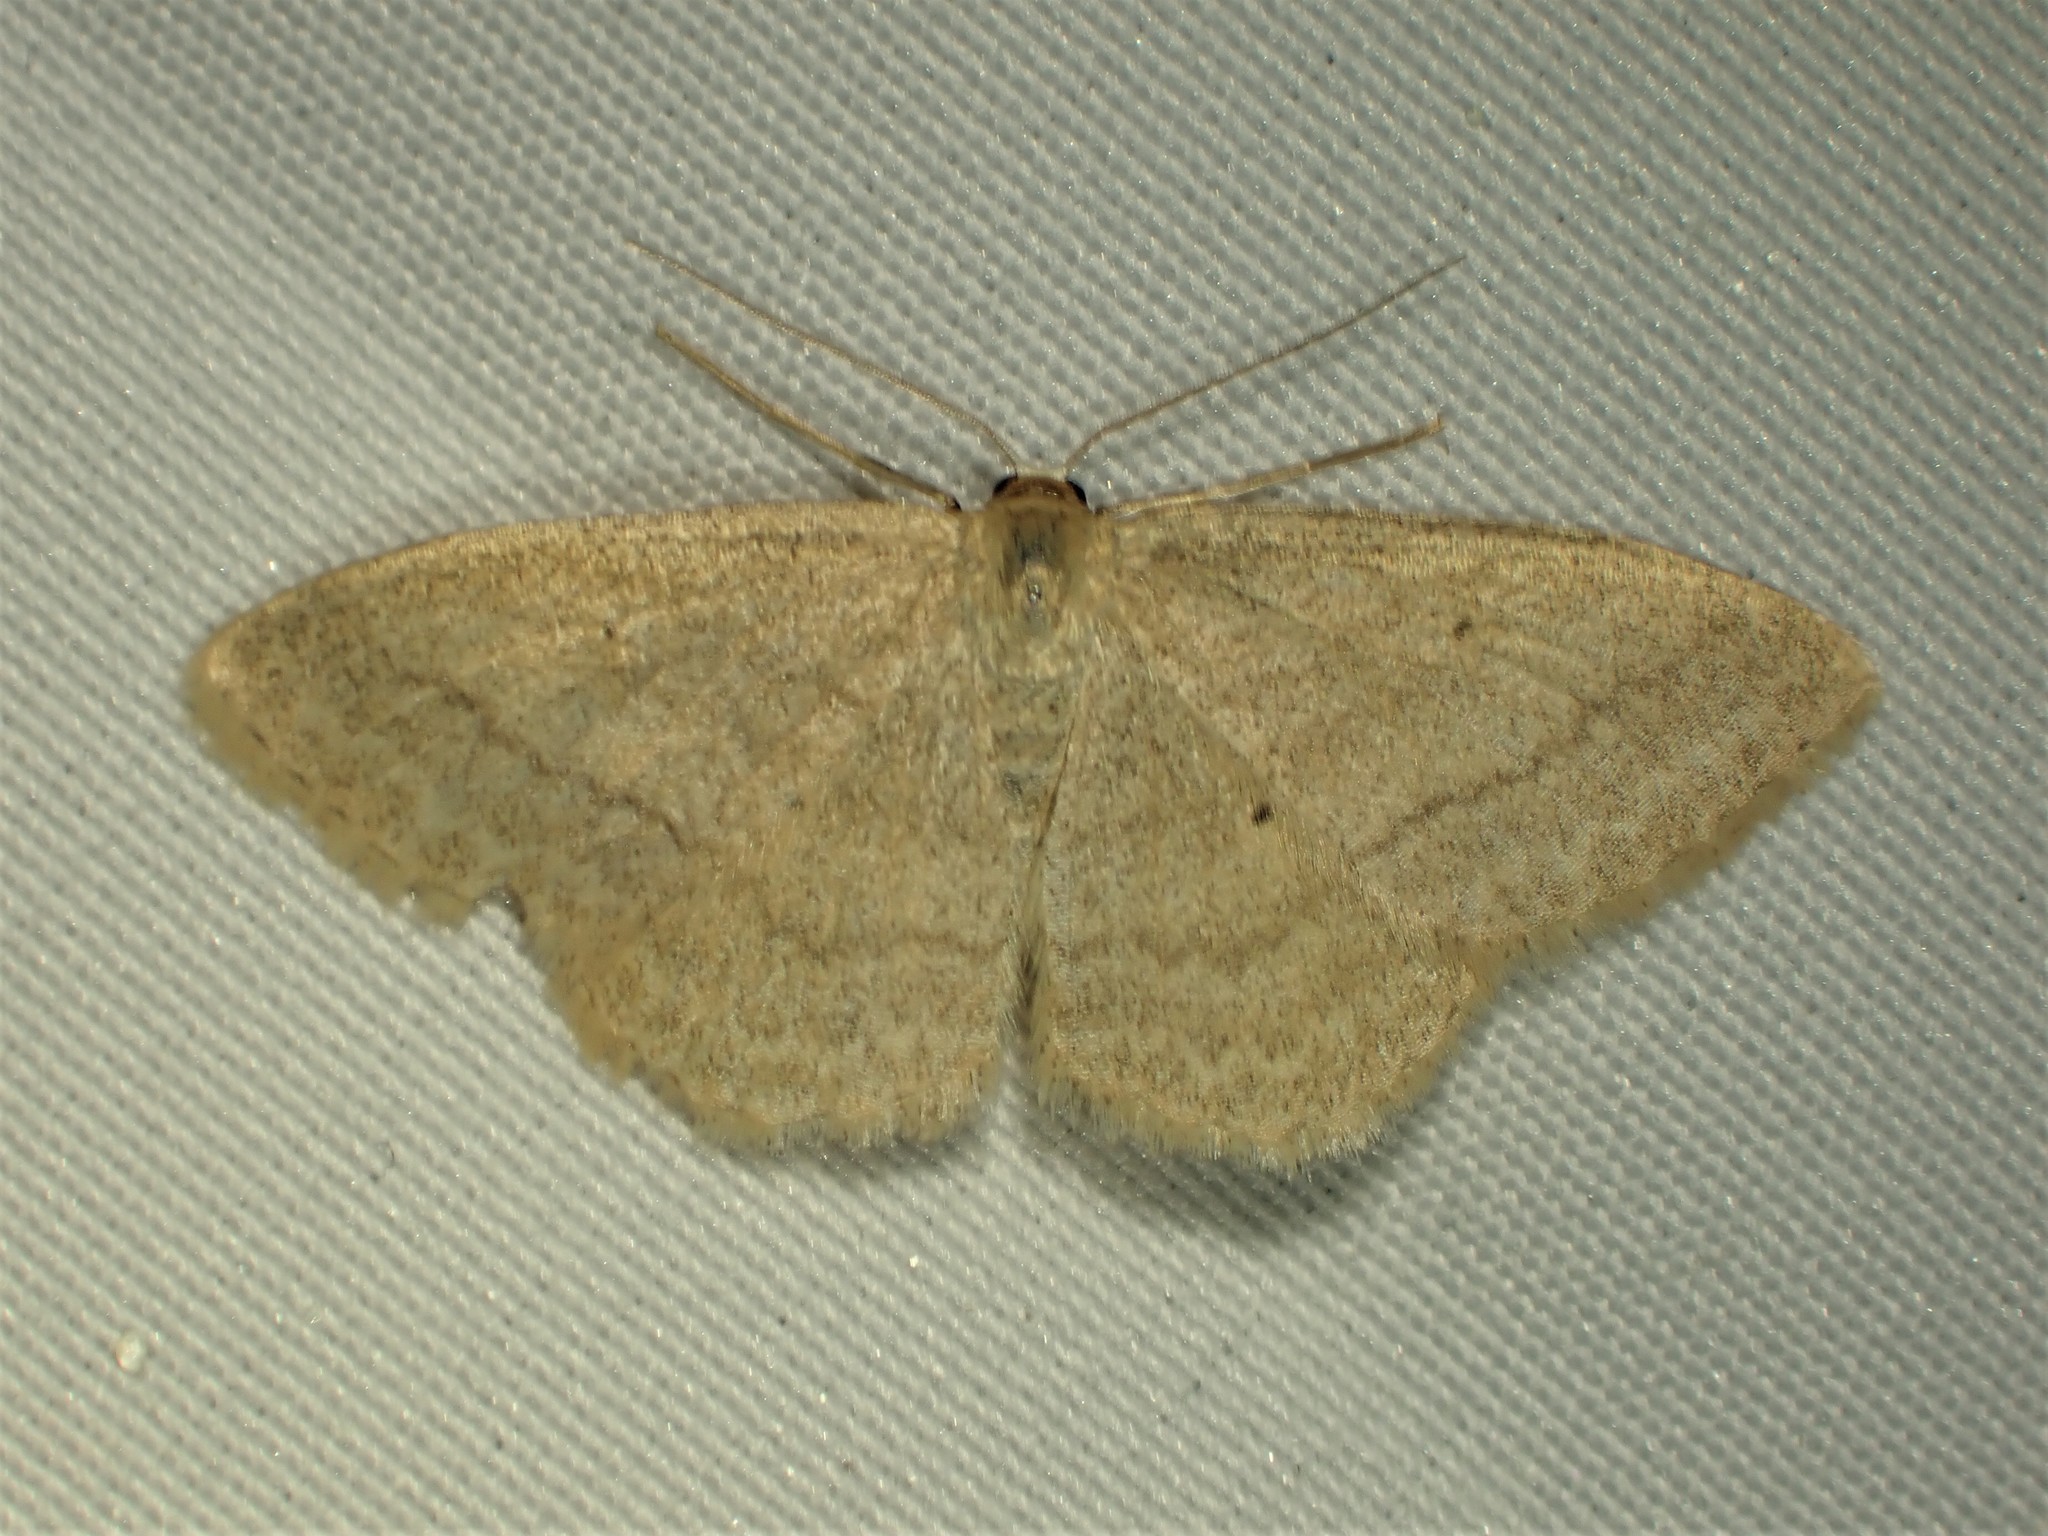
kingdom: Animalia
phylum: Arthropoda
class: Insecta
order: Lepidoptera
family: Geometridae
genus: Scopula
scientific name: Scopula inductata
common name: Soft-lined wave
